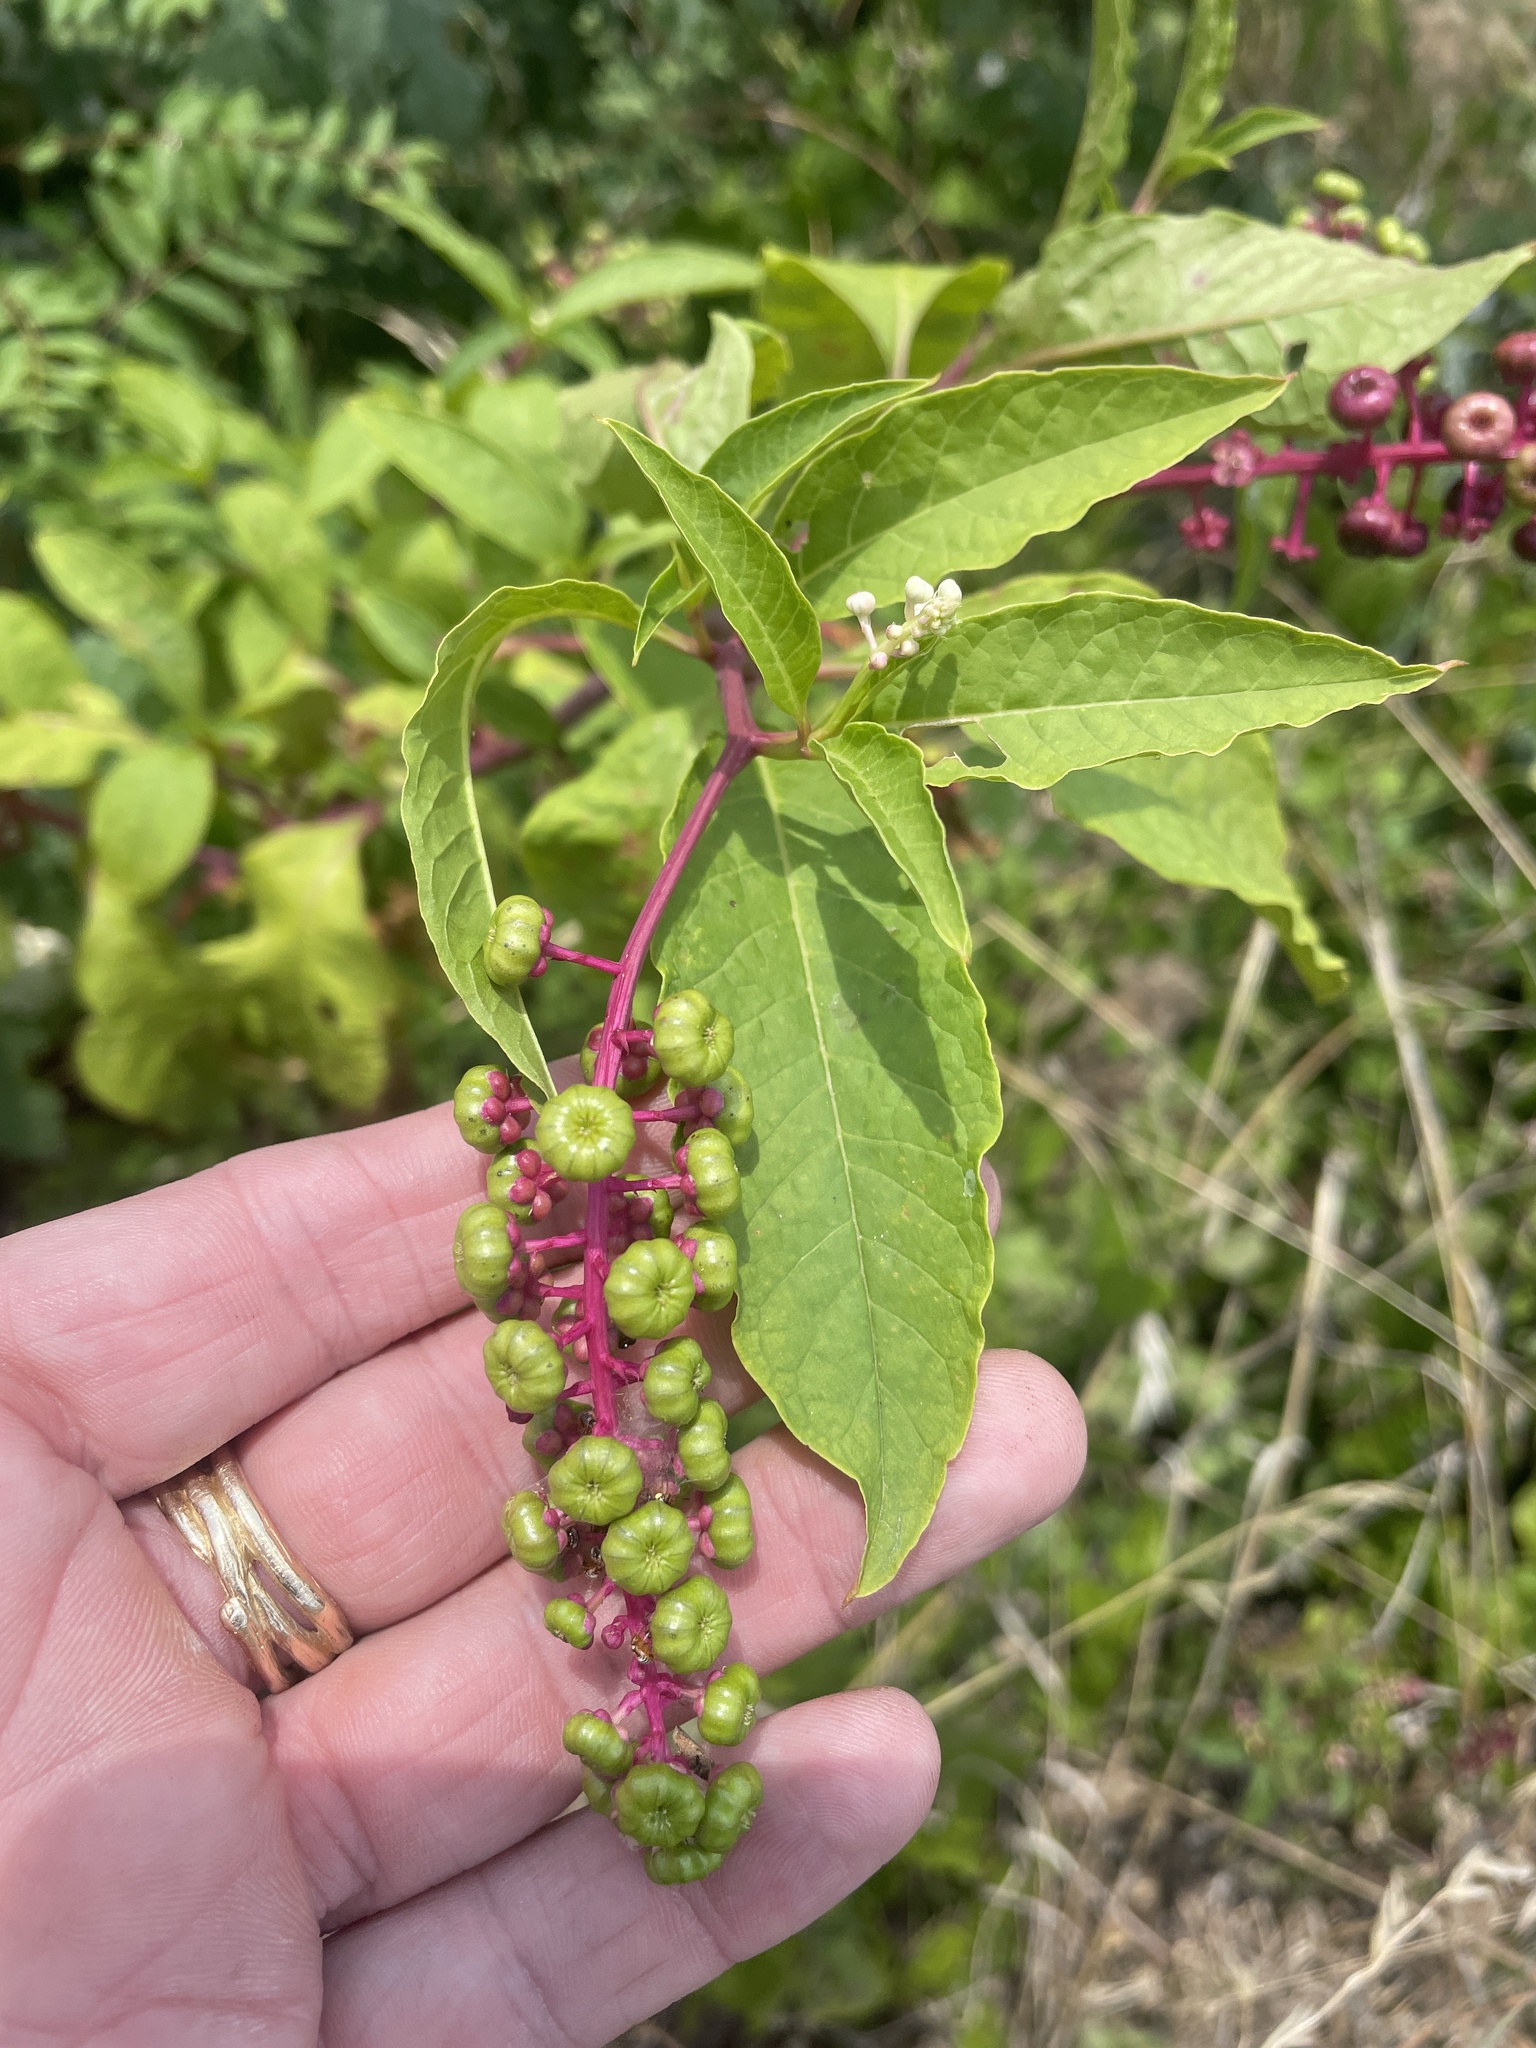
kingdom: Plantae
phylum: Tracheophyta
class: Magnoliopsida
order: Caryophyllales
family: Phytolaccaceae
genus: Phytolacca
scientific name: Phytolacca americana
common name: American pokeweed
